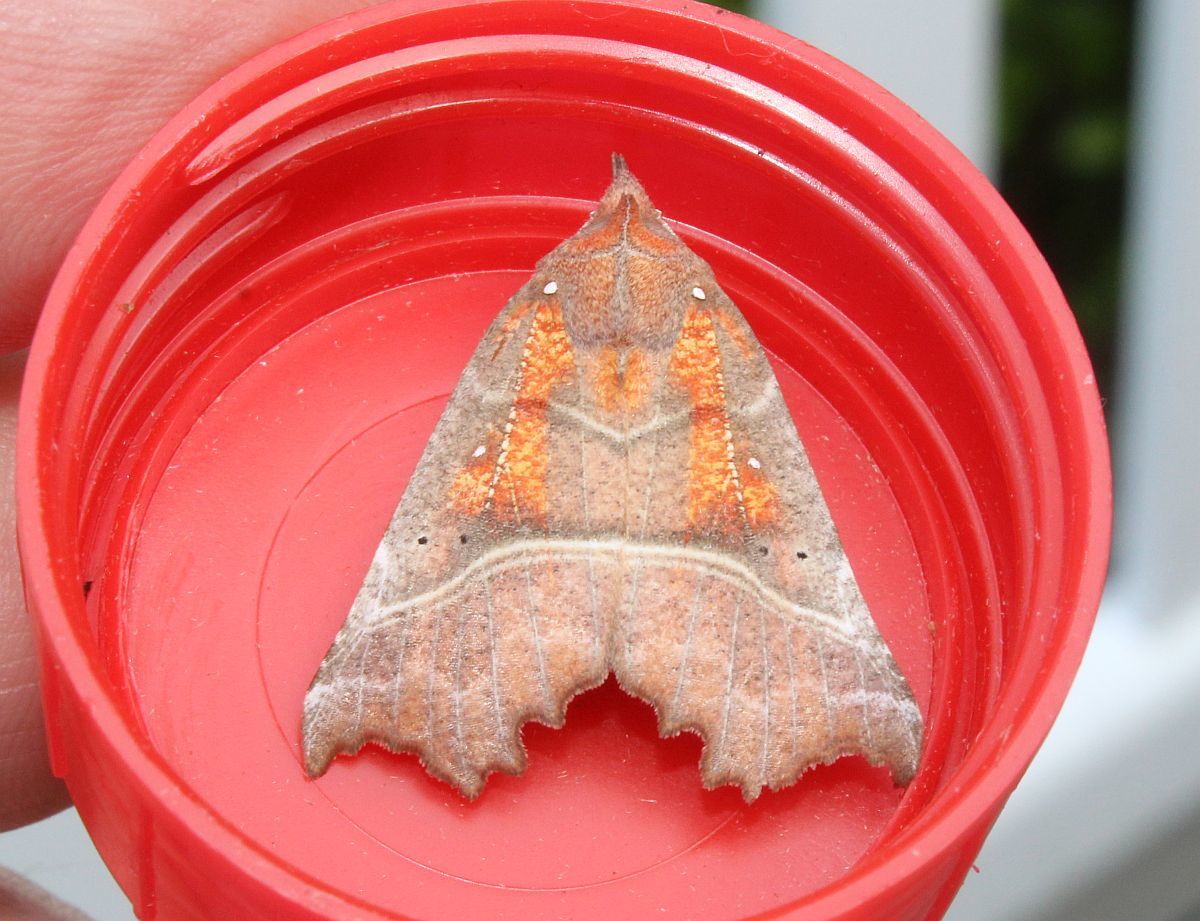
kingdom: Animalia
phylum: Arthropoda
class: Insecta
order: Lepidoptera
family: Erebidae
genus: Scoliopteryx
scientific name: Scoliopteryx libatrix
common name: Herald
